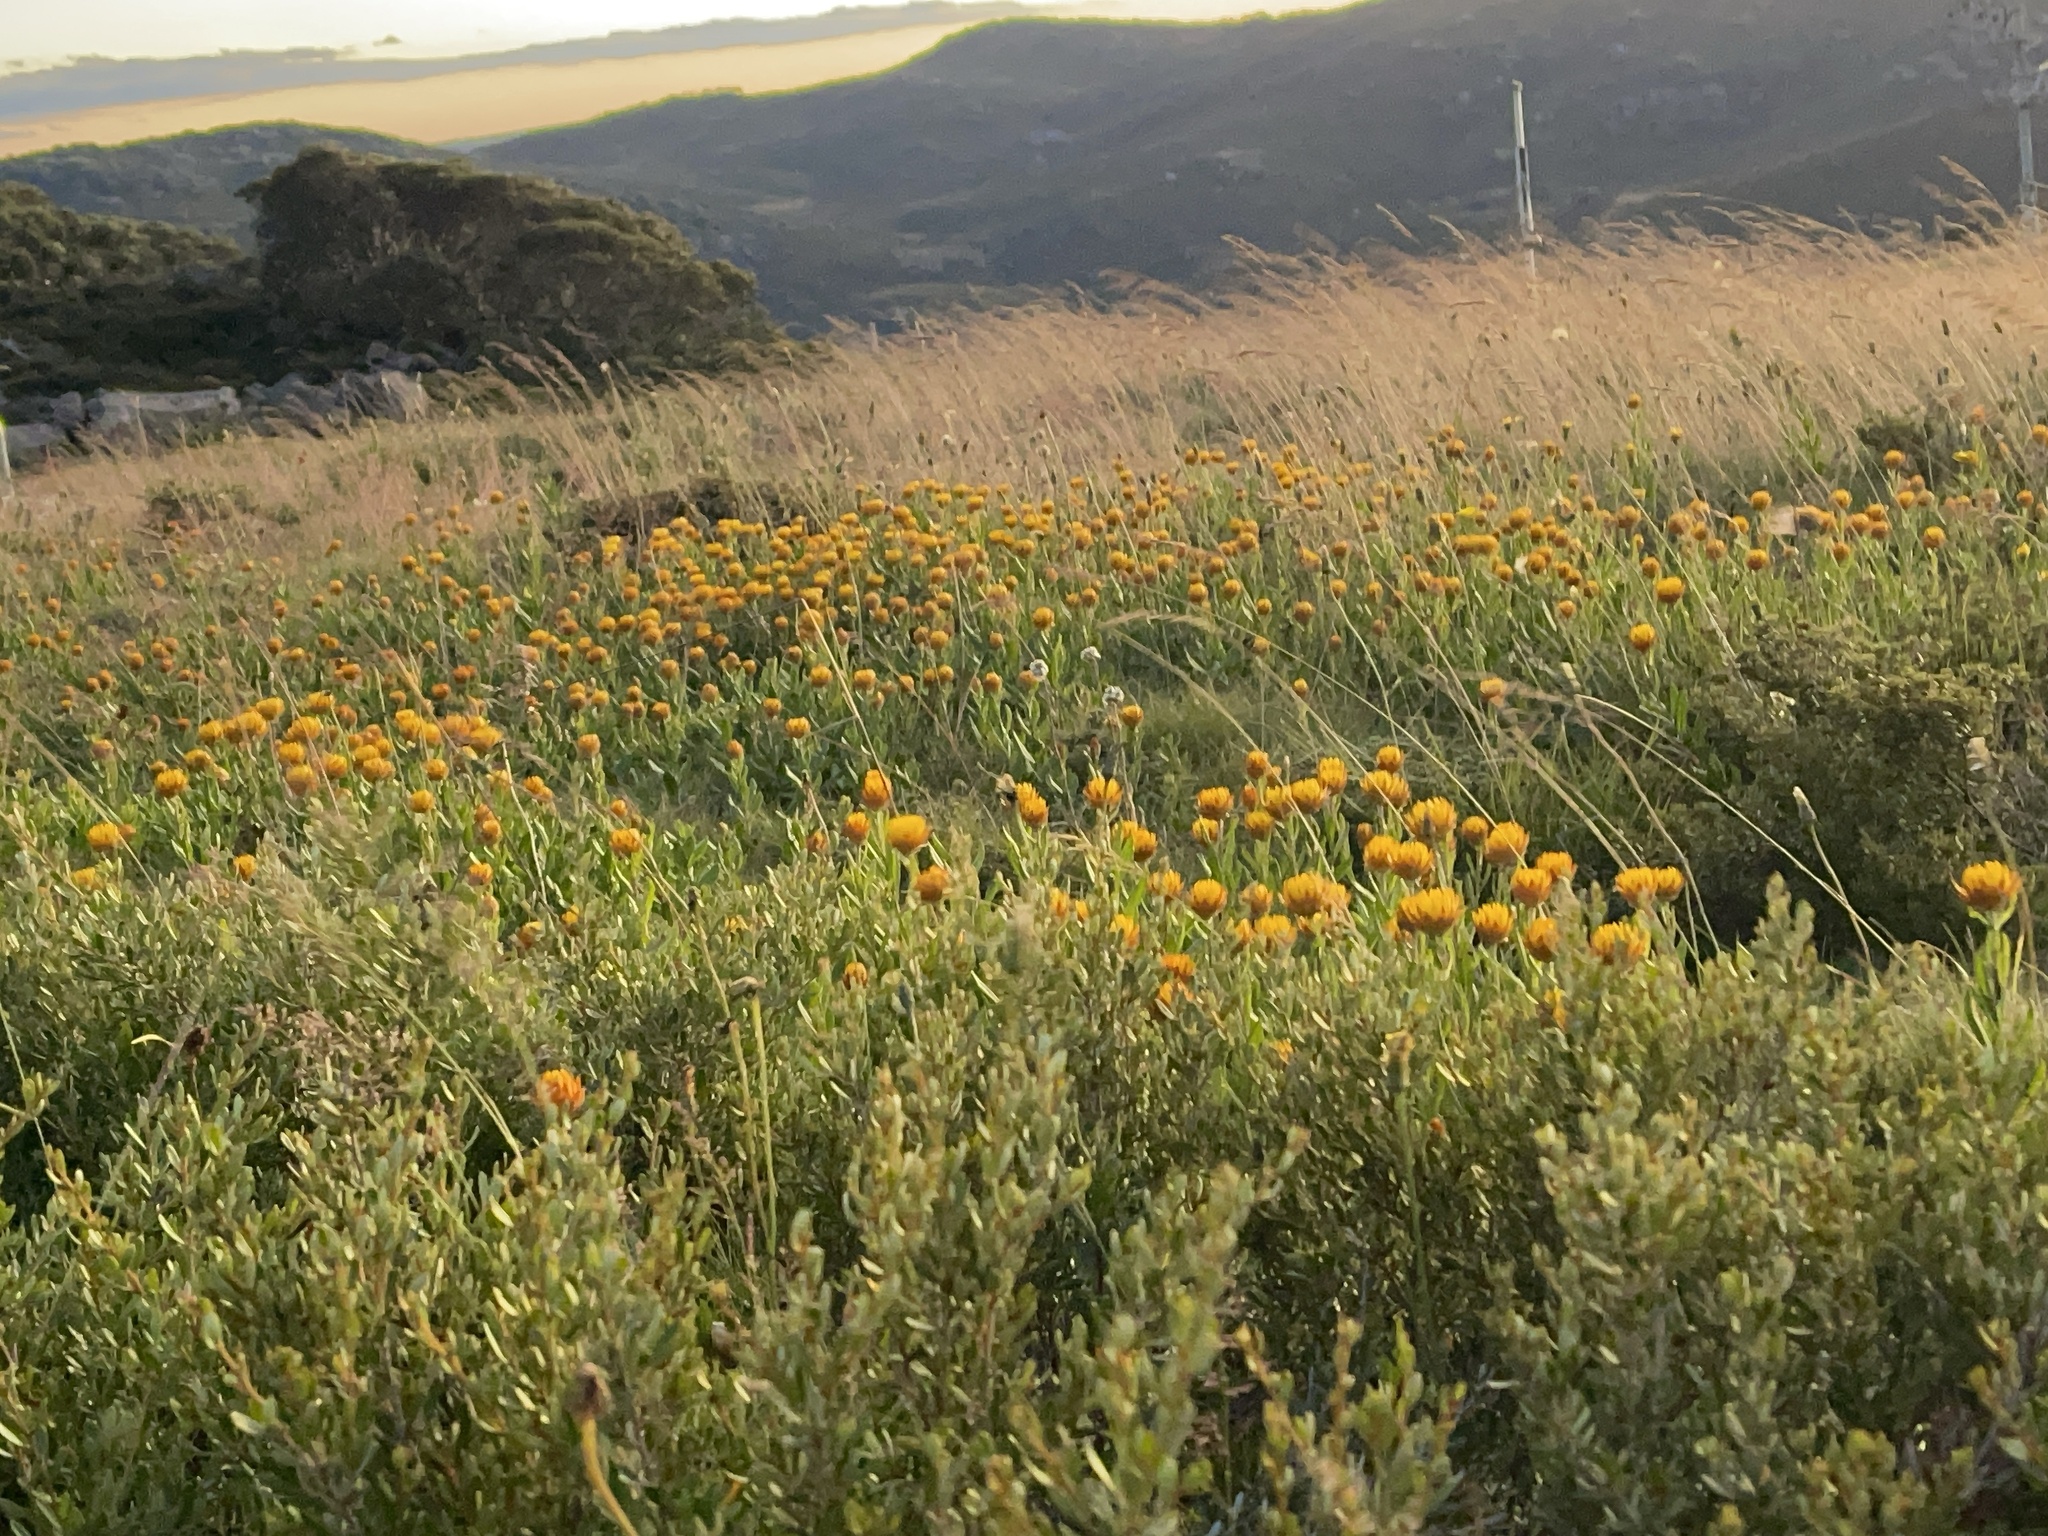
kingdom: Plantae
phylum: Tracheophyta
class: Magnoliopsida
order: Asterales
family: Asteraceae
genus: Xerochrysum
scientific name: Xerochrysum subundulatum
